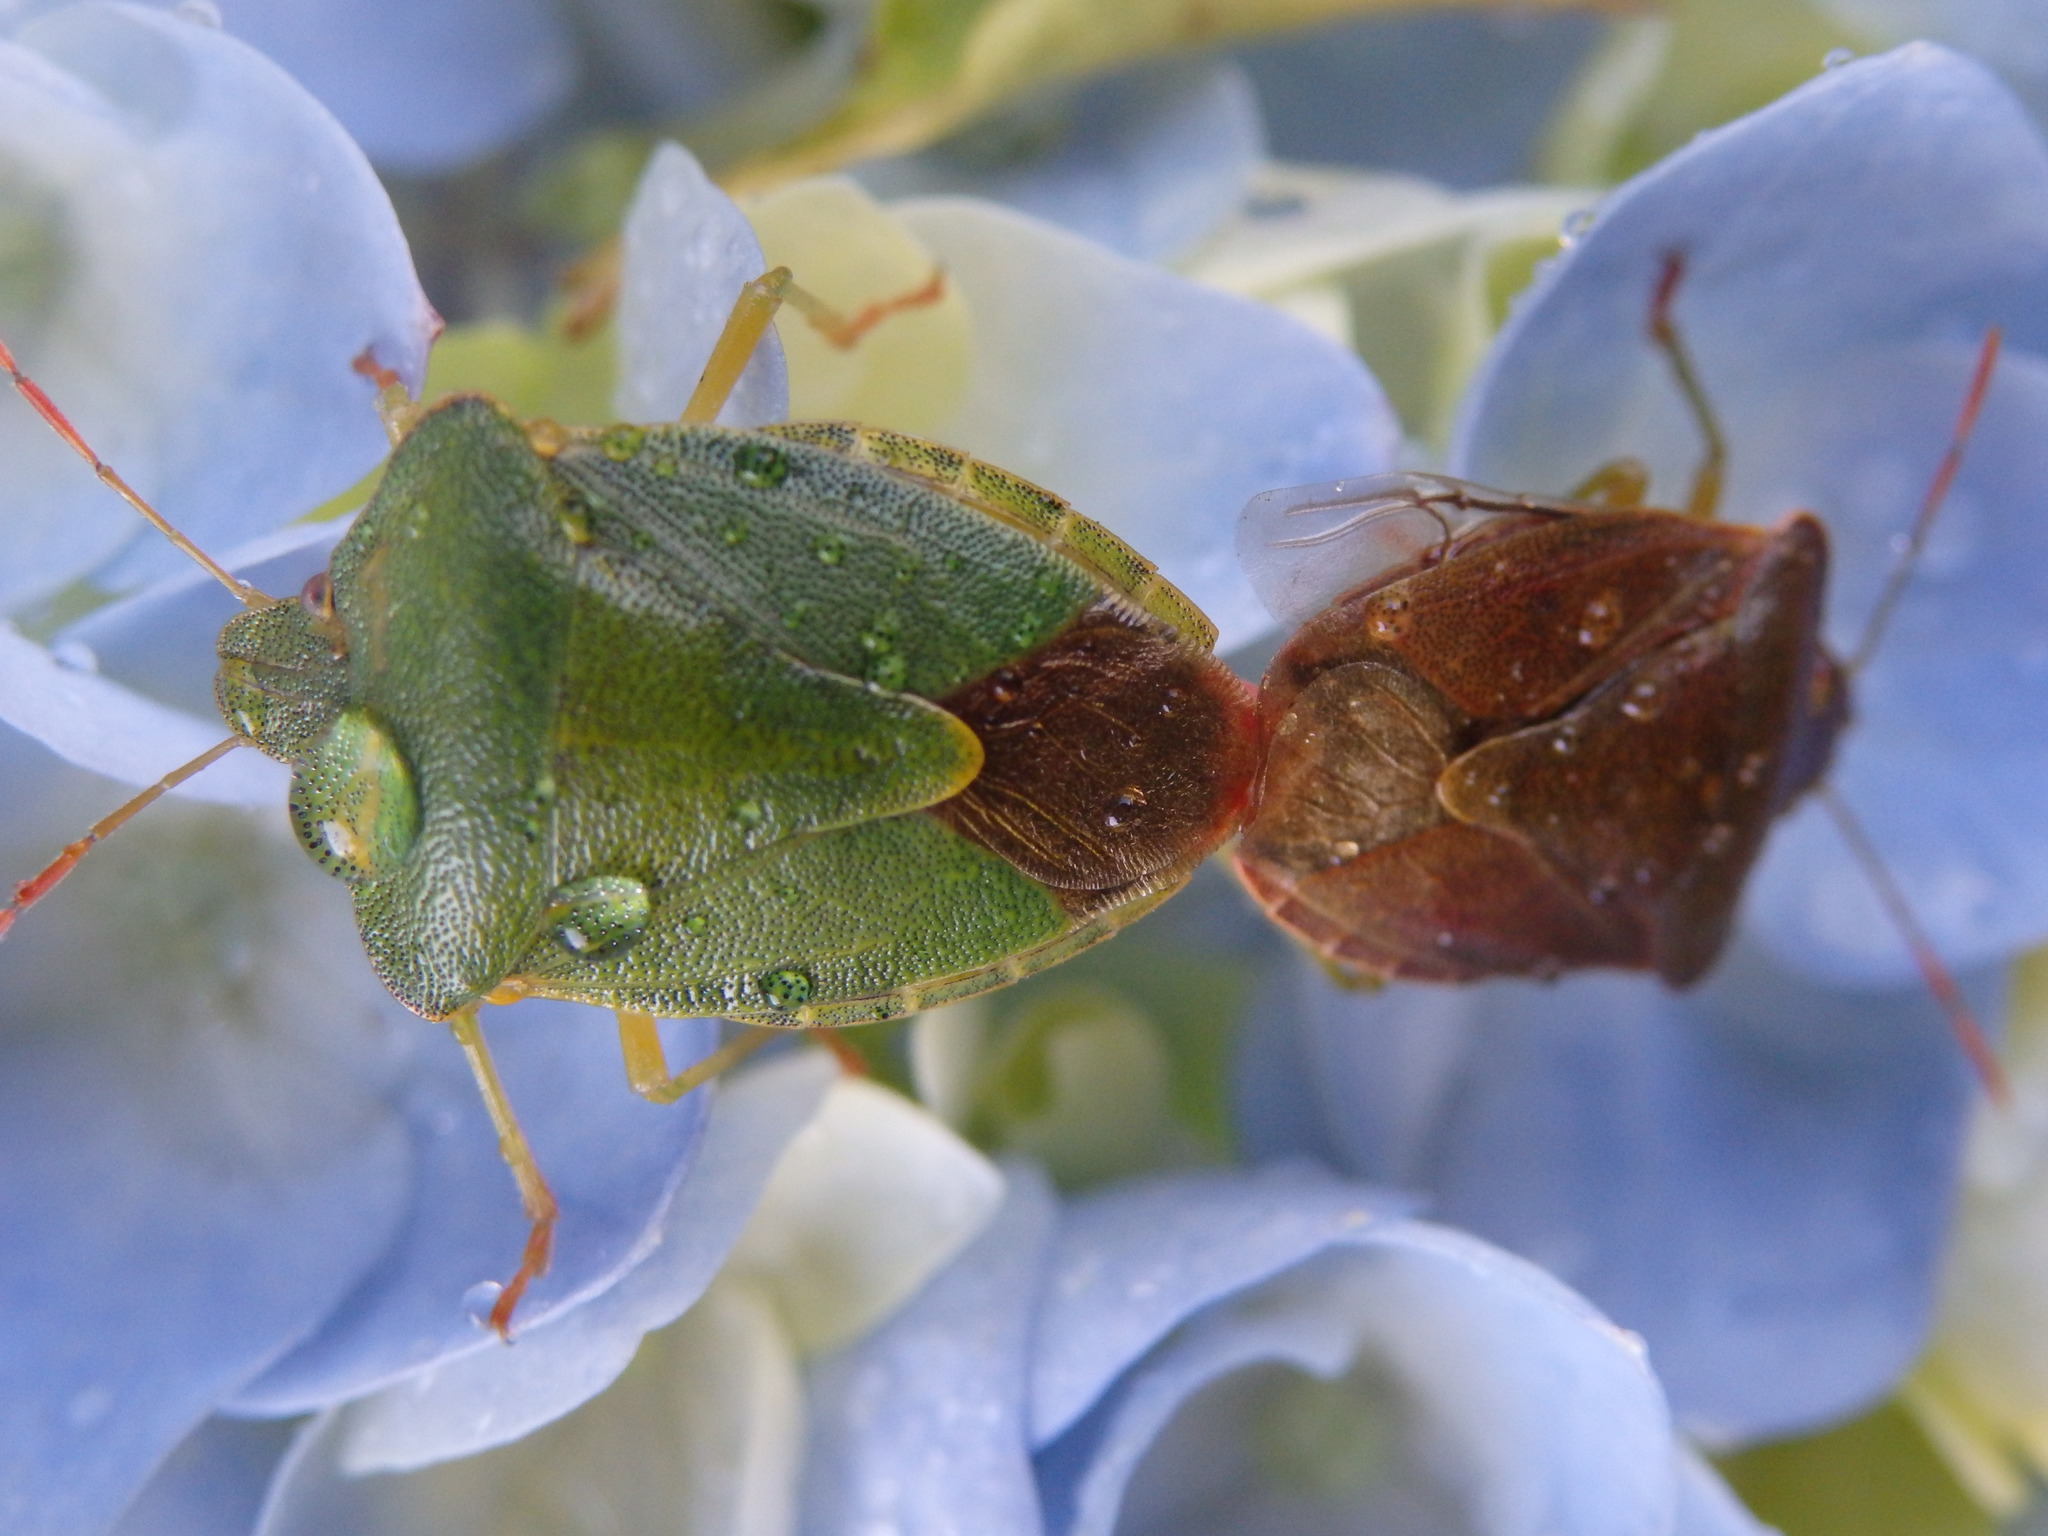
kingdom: Animalia
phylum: Arthropoda
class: Insecta
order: Hemiptera
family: Pentatomidae
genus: Palomena
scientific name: Palomena prasina
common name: Green shieldbug
